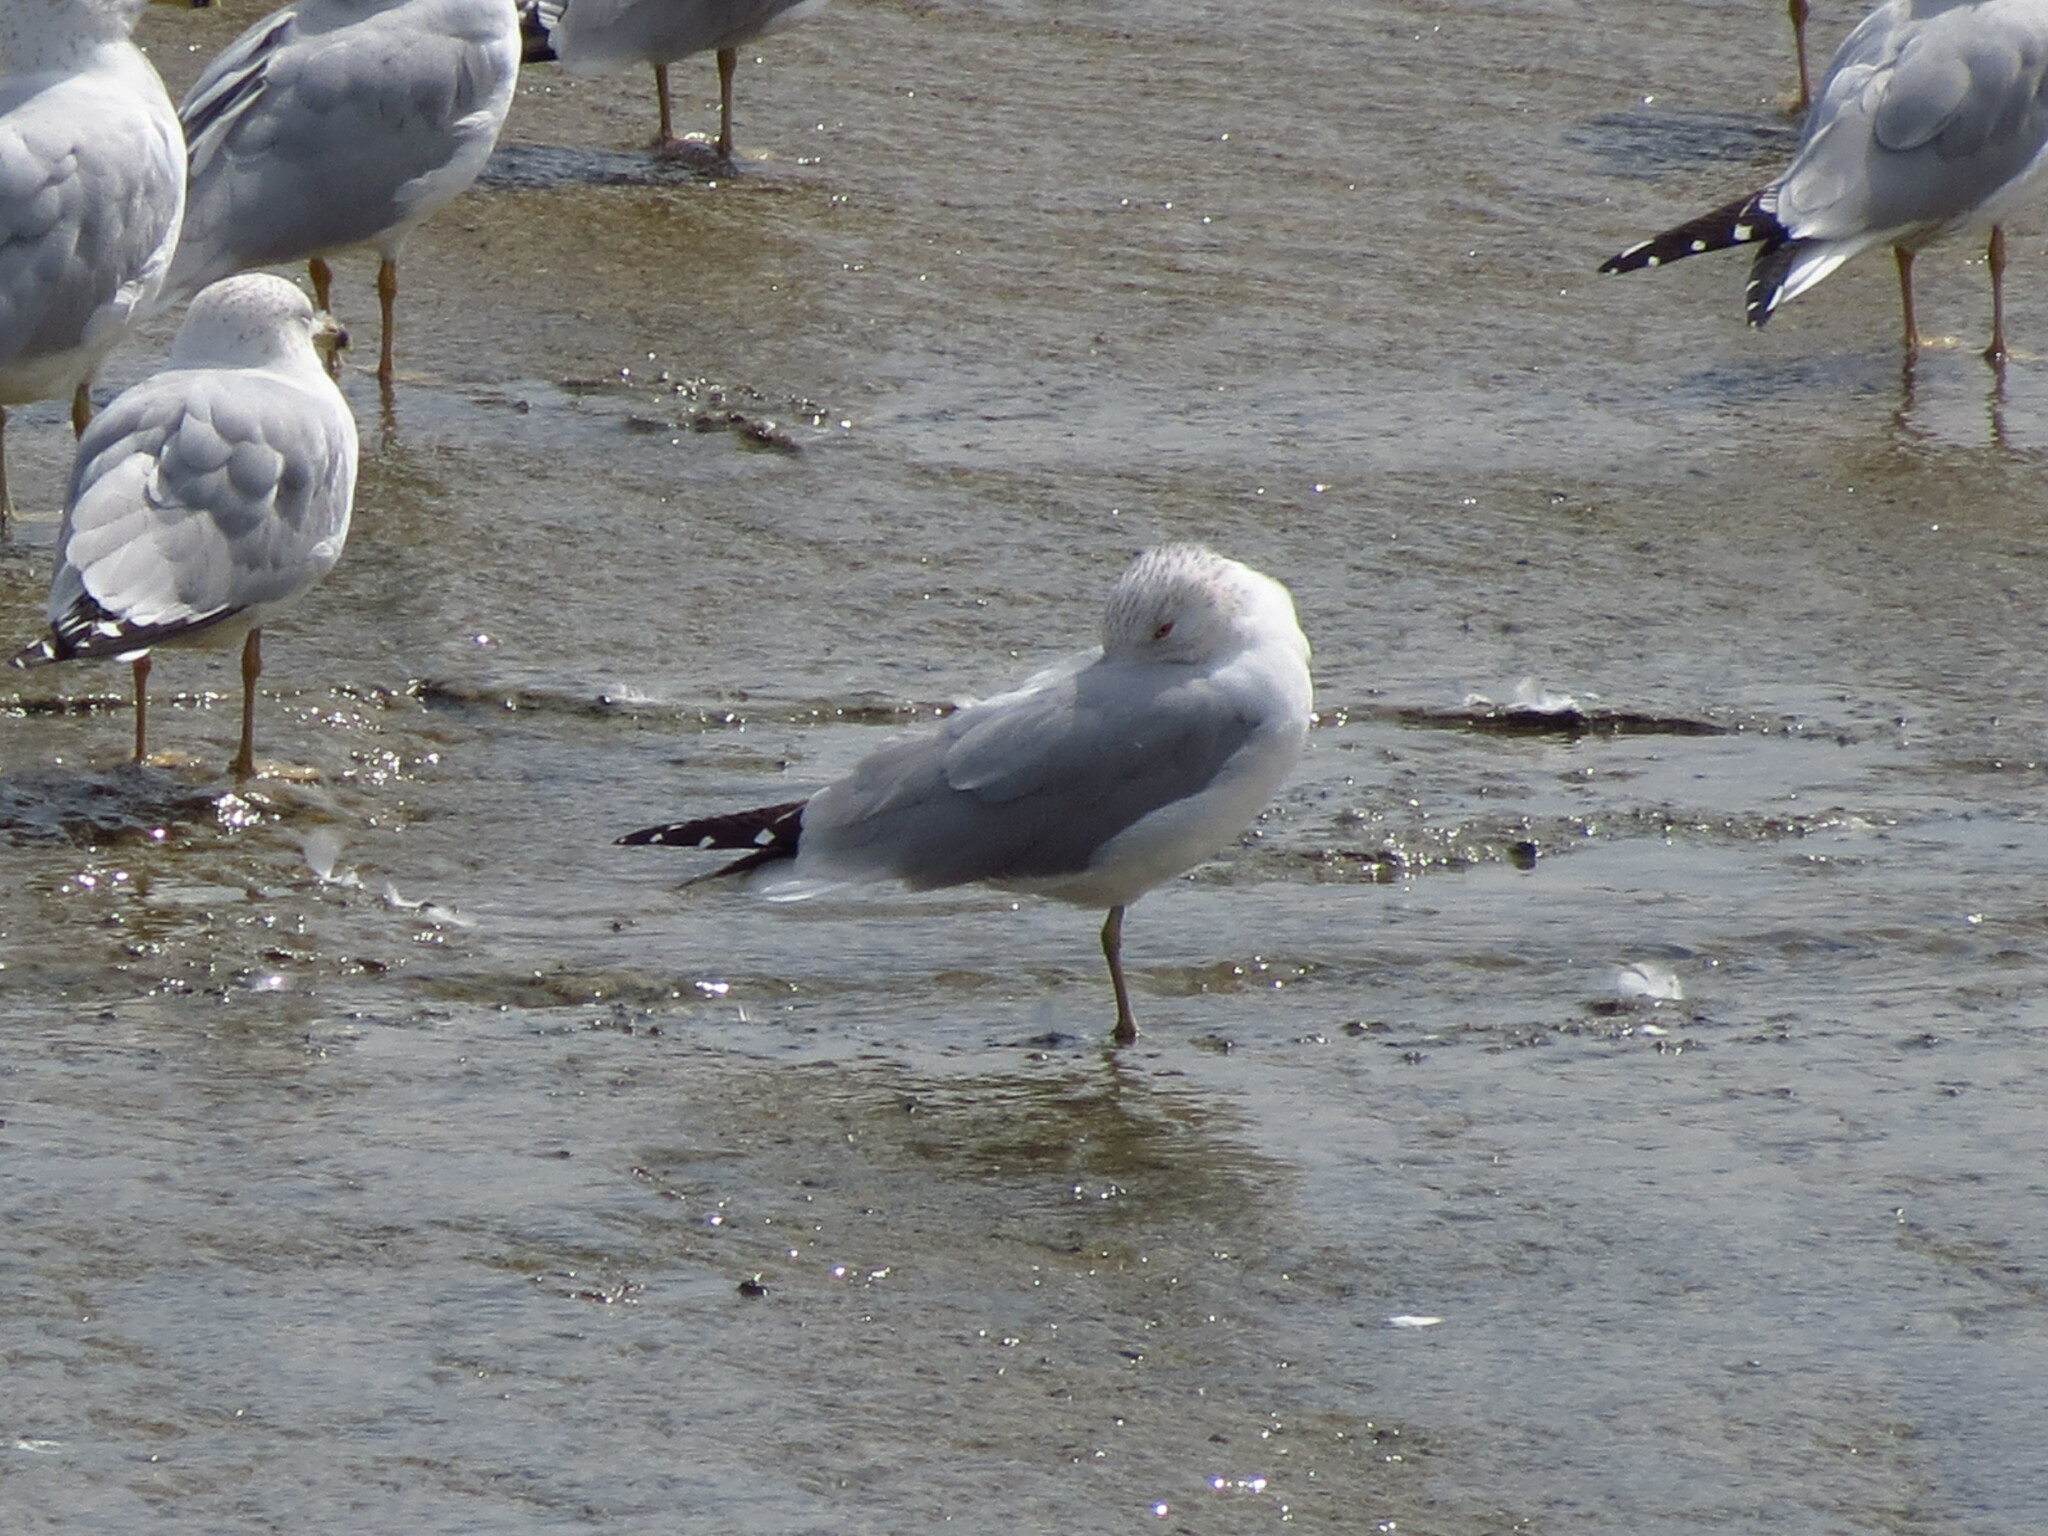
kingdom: Animalia
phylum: Chordata
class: Aves
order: Charadriiformes
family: Laridae
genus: Larus
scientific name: Larus delawarensis
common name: Ring-billed gull
